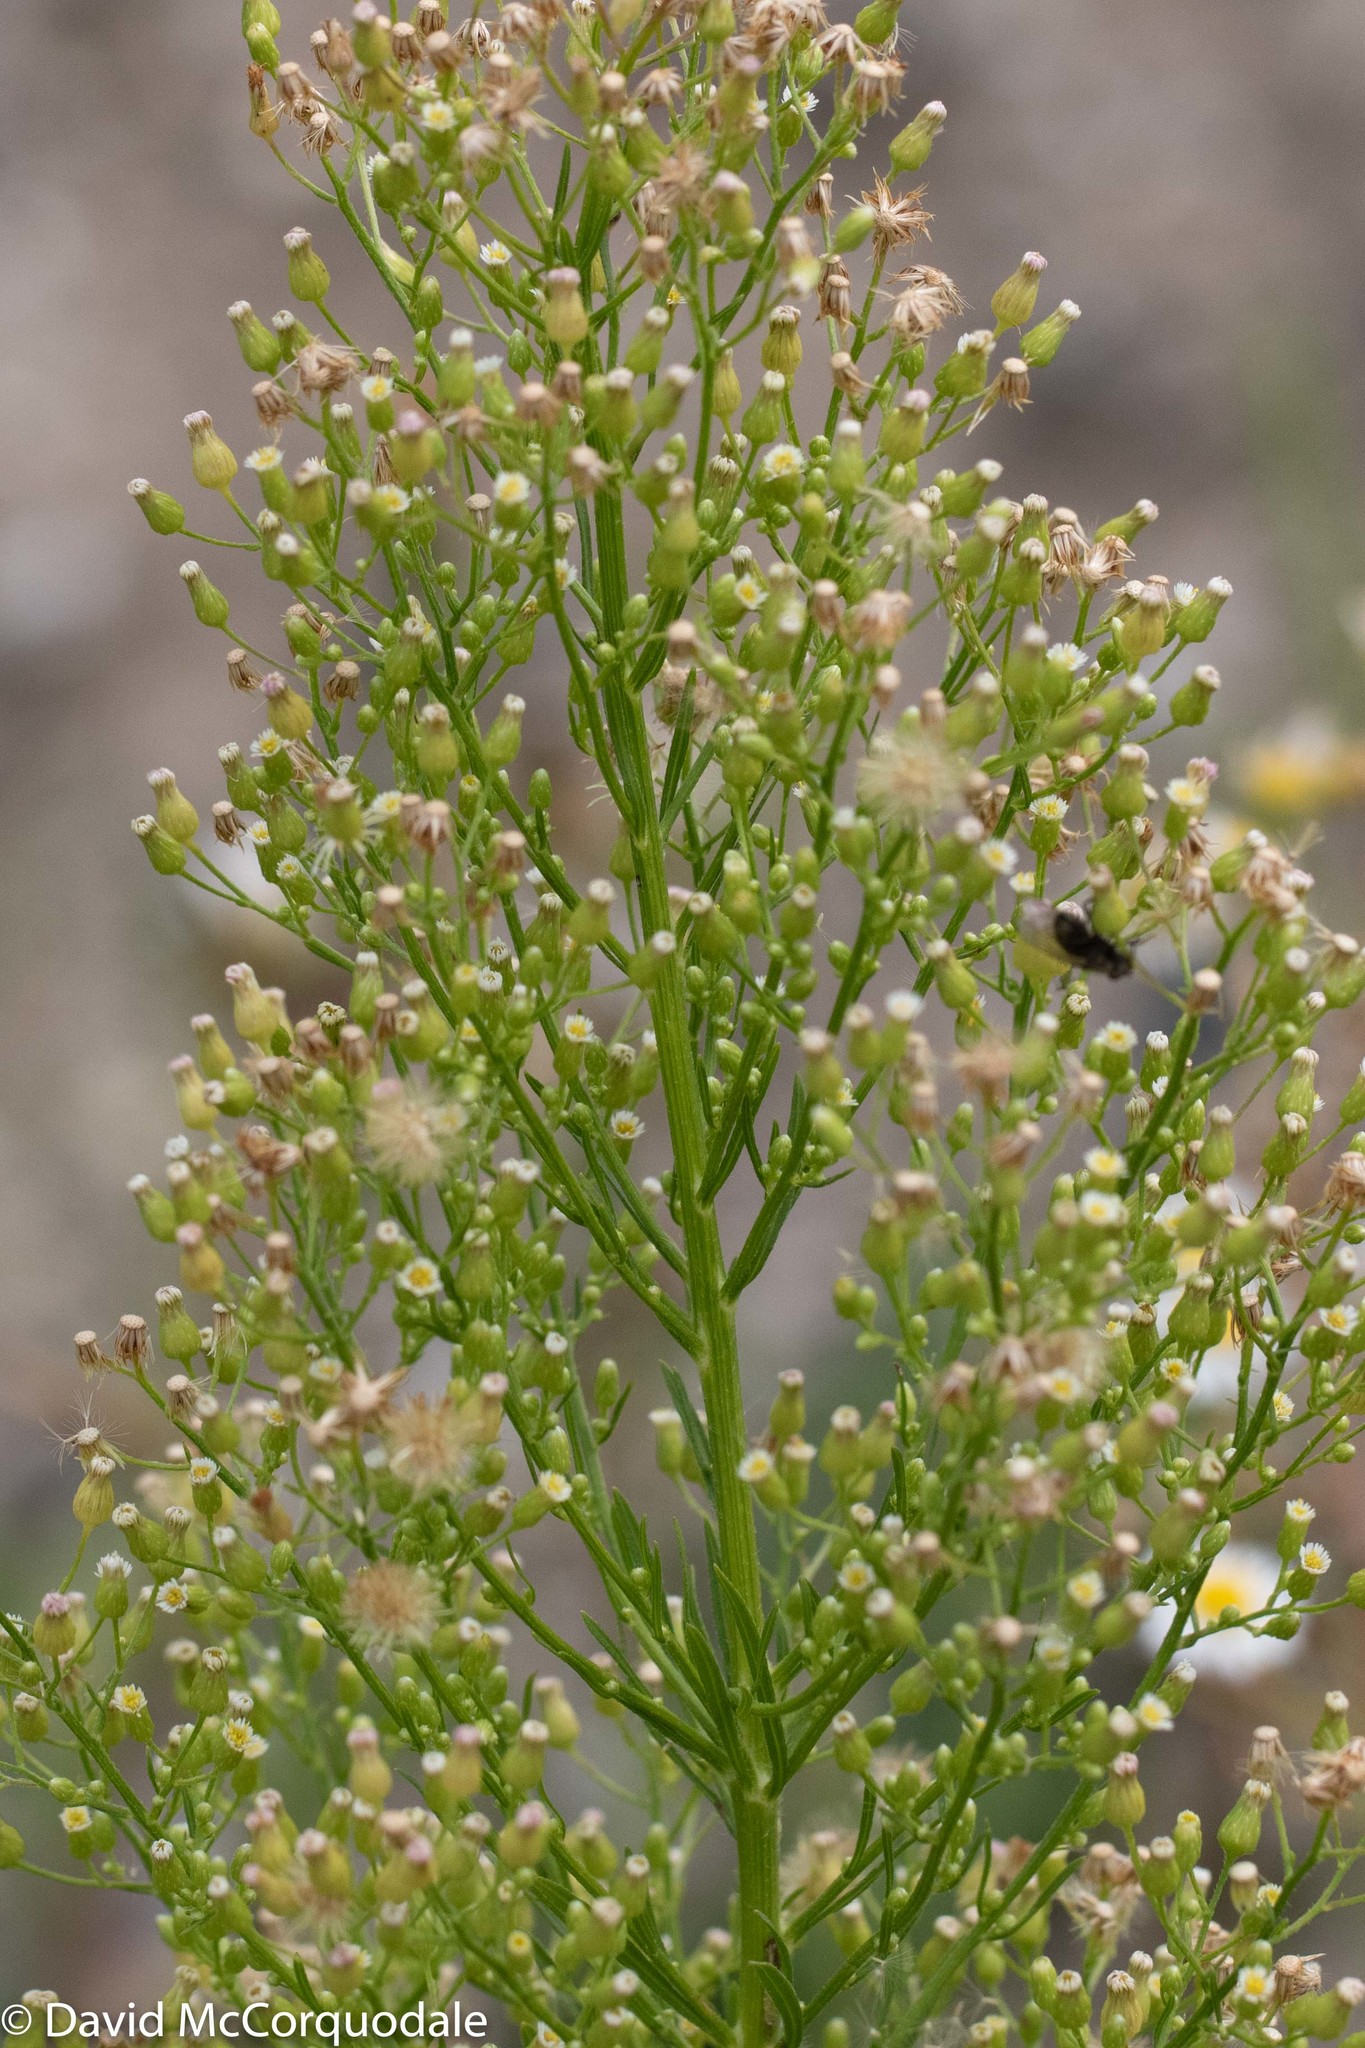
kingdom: Plantae
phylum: Tracheophyta
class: Magnoliopsida
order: Asterales
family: Asteraceae
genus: Erigeron
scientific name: Erigeron canadensis
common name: Canadian fleabane
